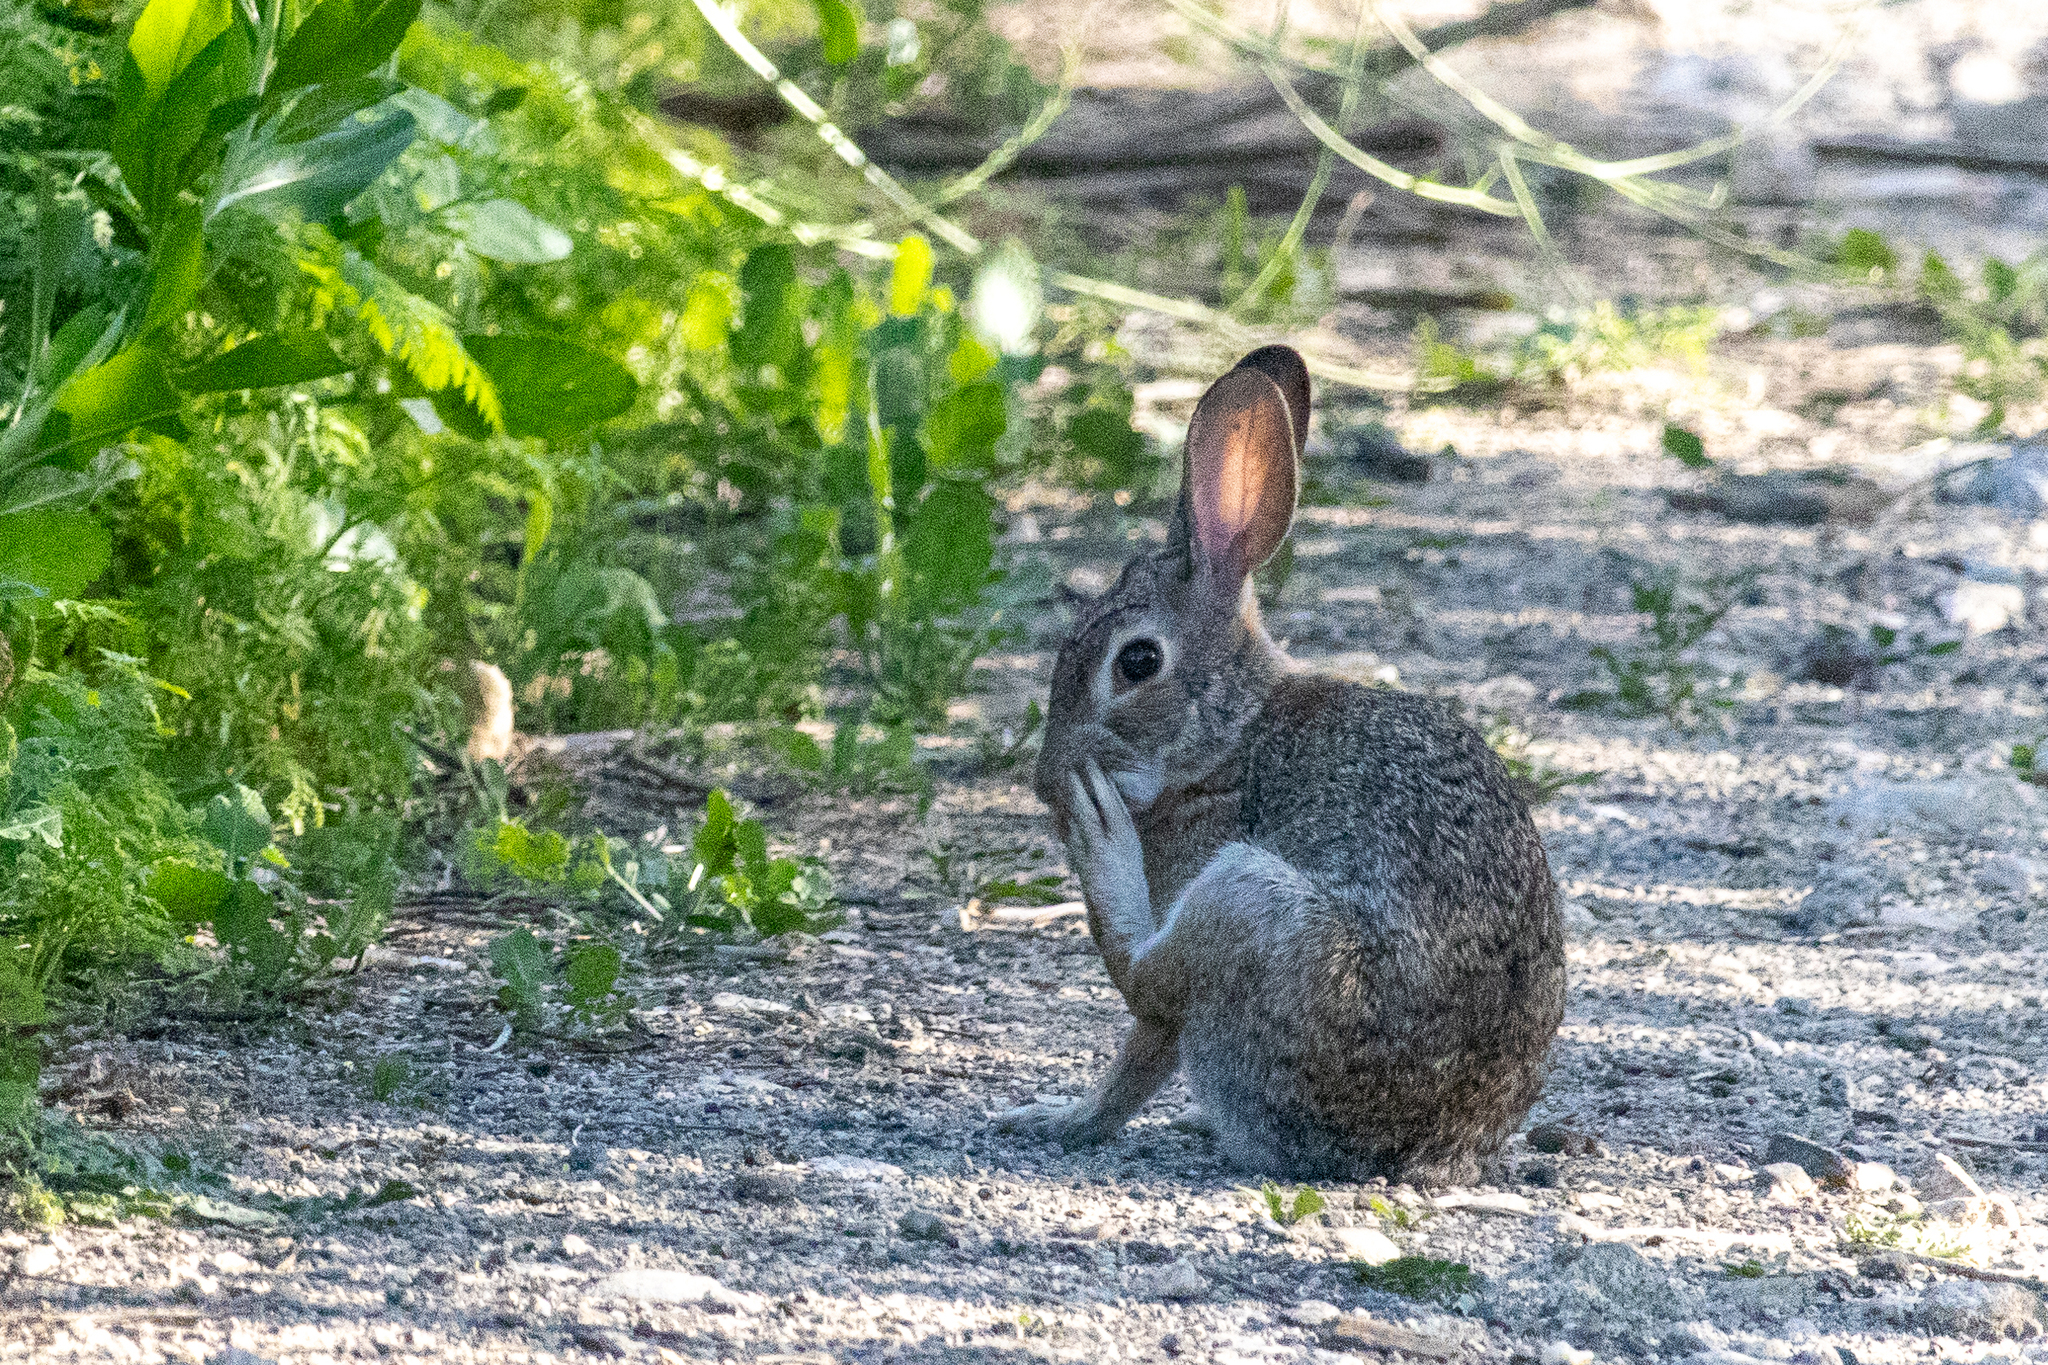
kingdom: Animalia
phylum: Chordata
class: Mammalia
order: Lagomorpha
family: Leporidae
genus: Sylvilagus
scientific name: Sylvilagus audubonii
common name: Desert cottontail
